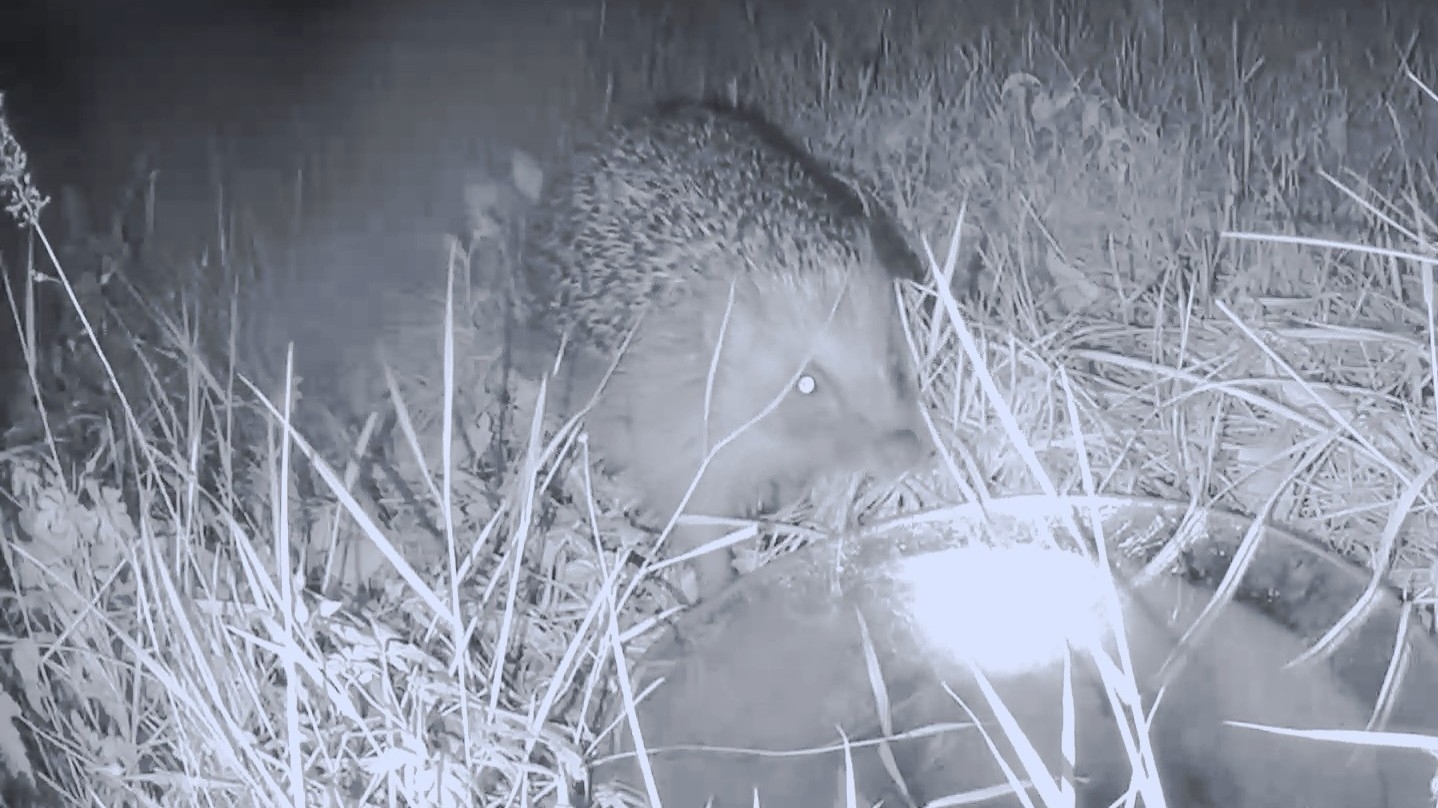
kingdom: Animalia
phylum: Chordata
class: Mammalia
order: Erinaceomorpha
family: Erinaceidae
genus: Erinaceus
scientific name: Erinaceus europaeus
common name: West european hedgehog
